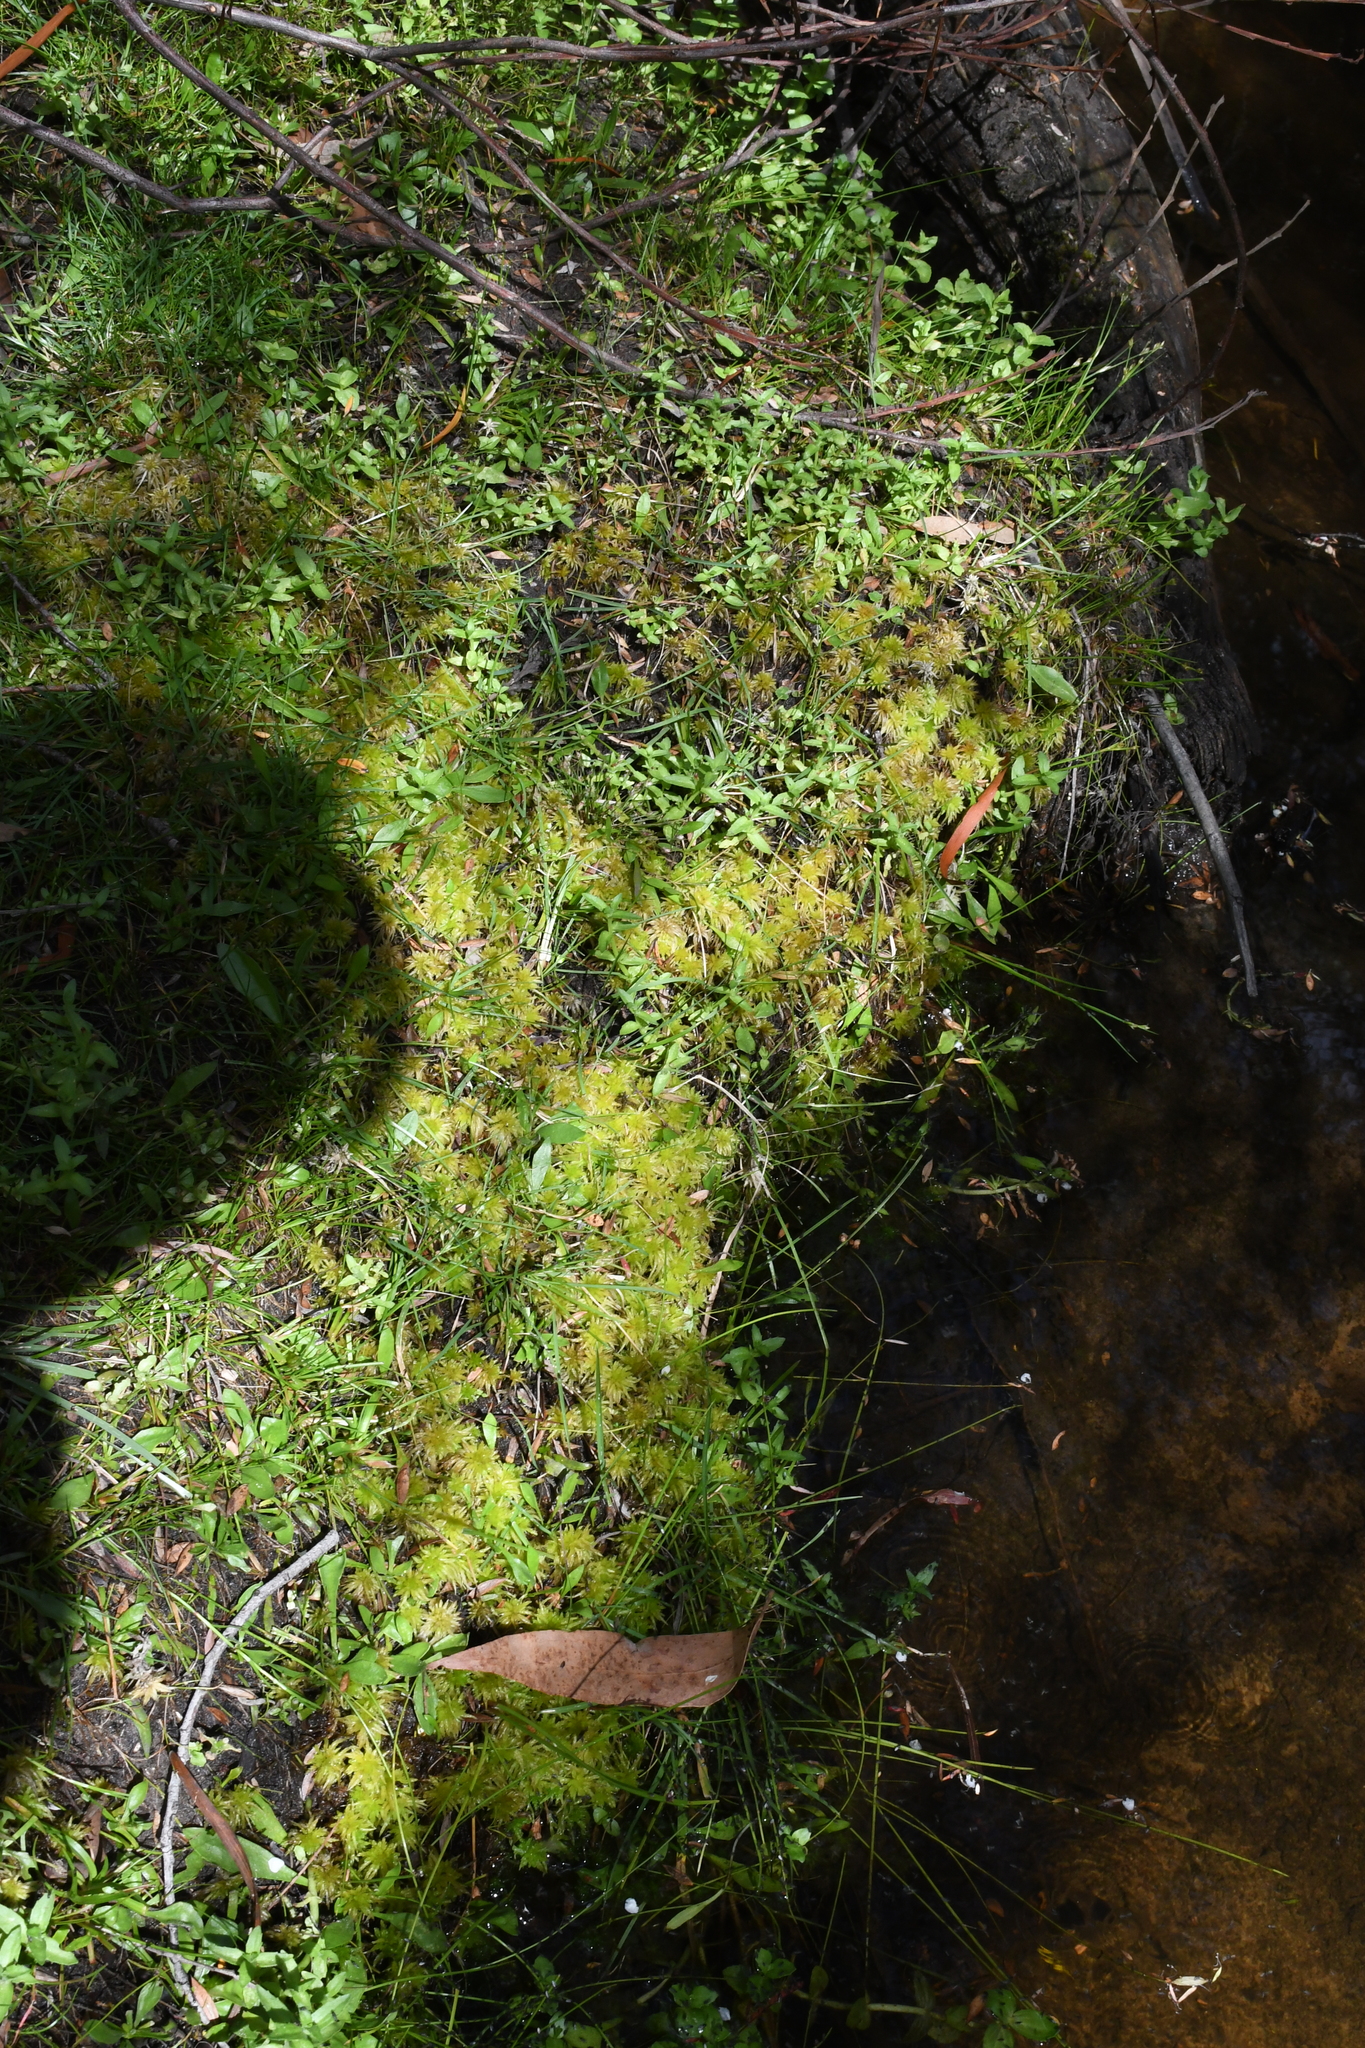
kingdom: Plantae
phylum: Bryophyta
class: Sphagnopsida
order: Sphagnales
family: Sphagnaceae
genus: Sphagnum
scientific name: Sphagnum novozelandicum
